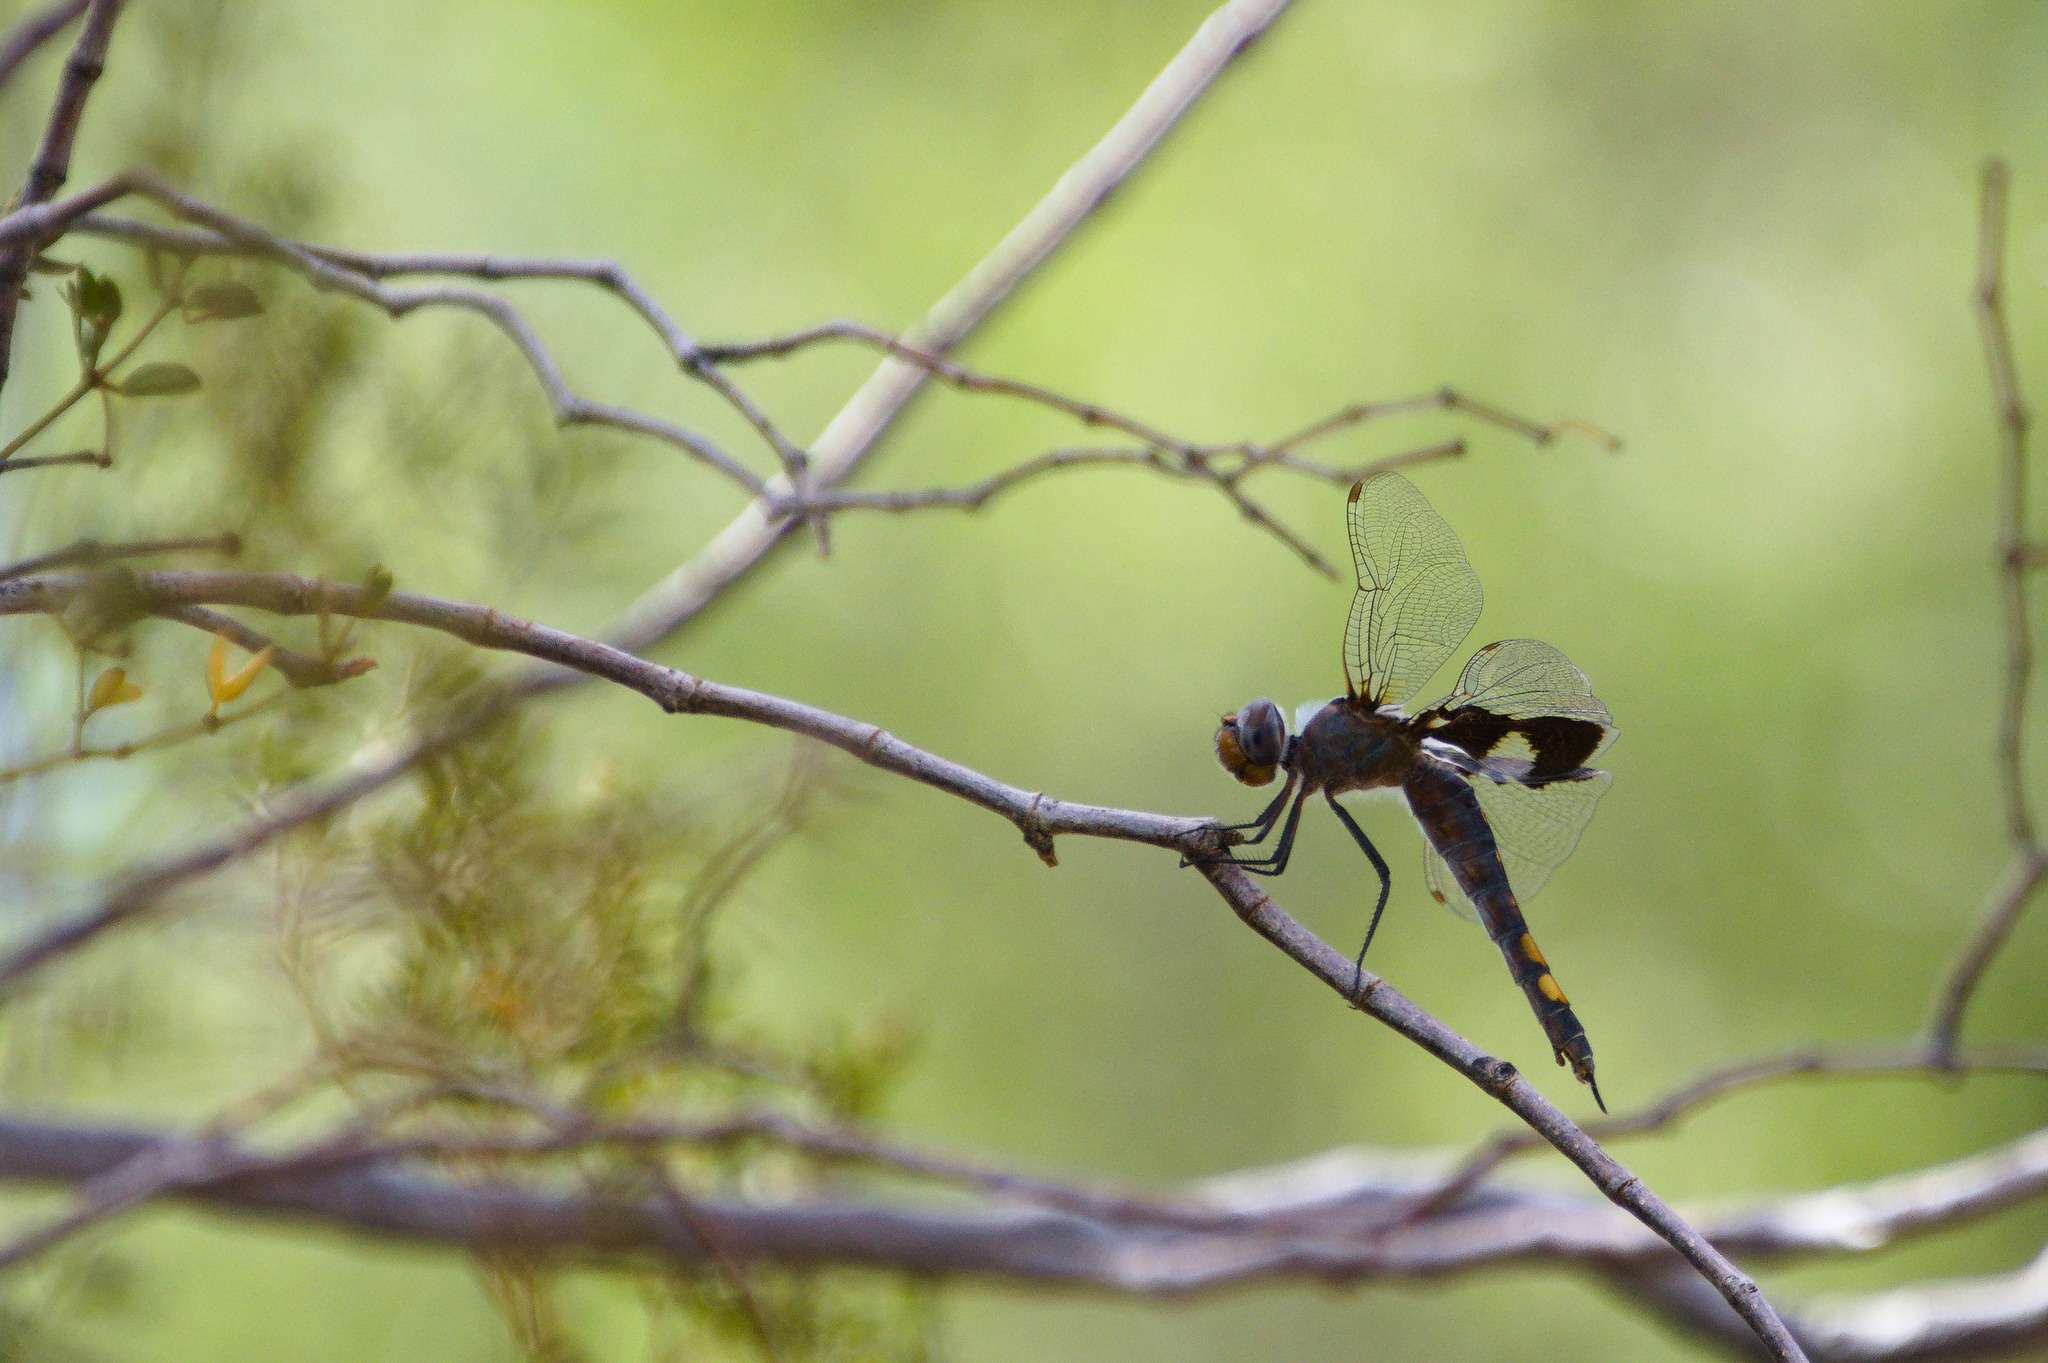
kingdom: Animalia
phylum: Arthropoda
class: Insecta
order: Odonata
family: Libellulidae
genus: Tramea
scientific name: Tramea lacerata
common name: Black saddlebags
